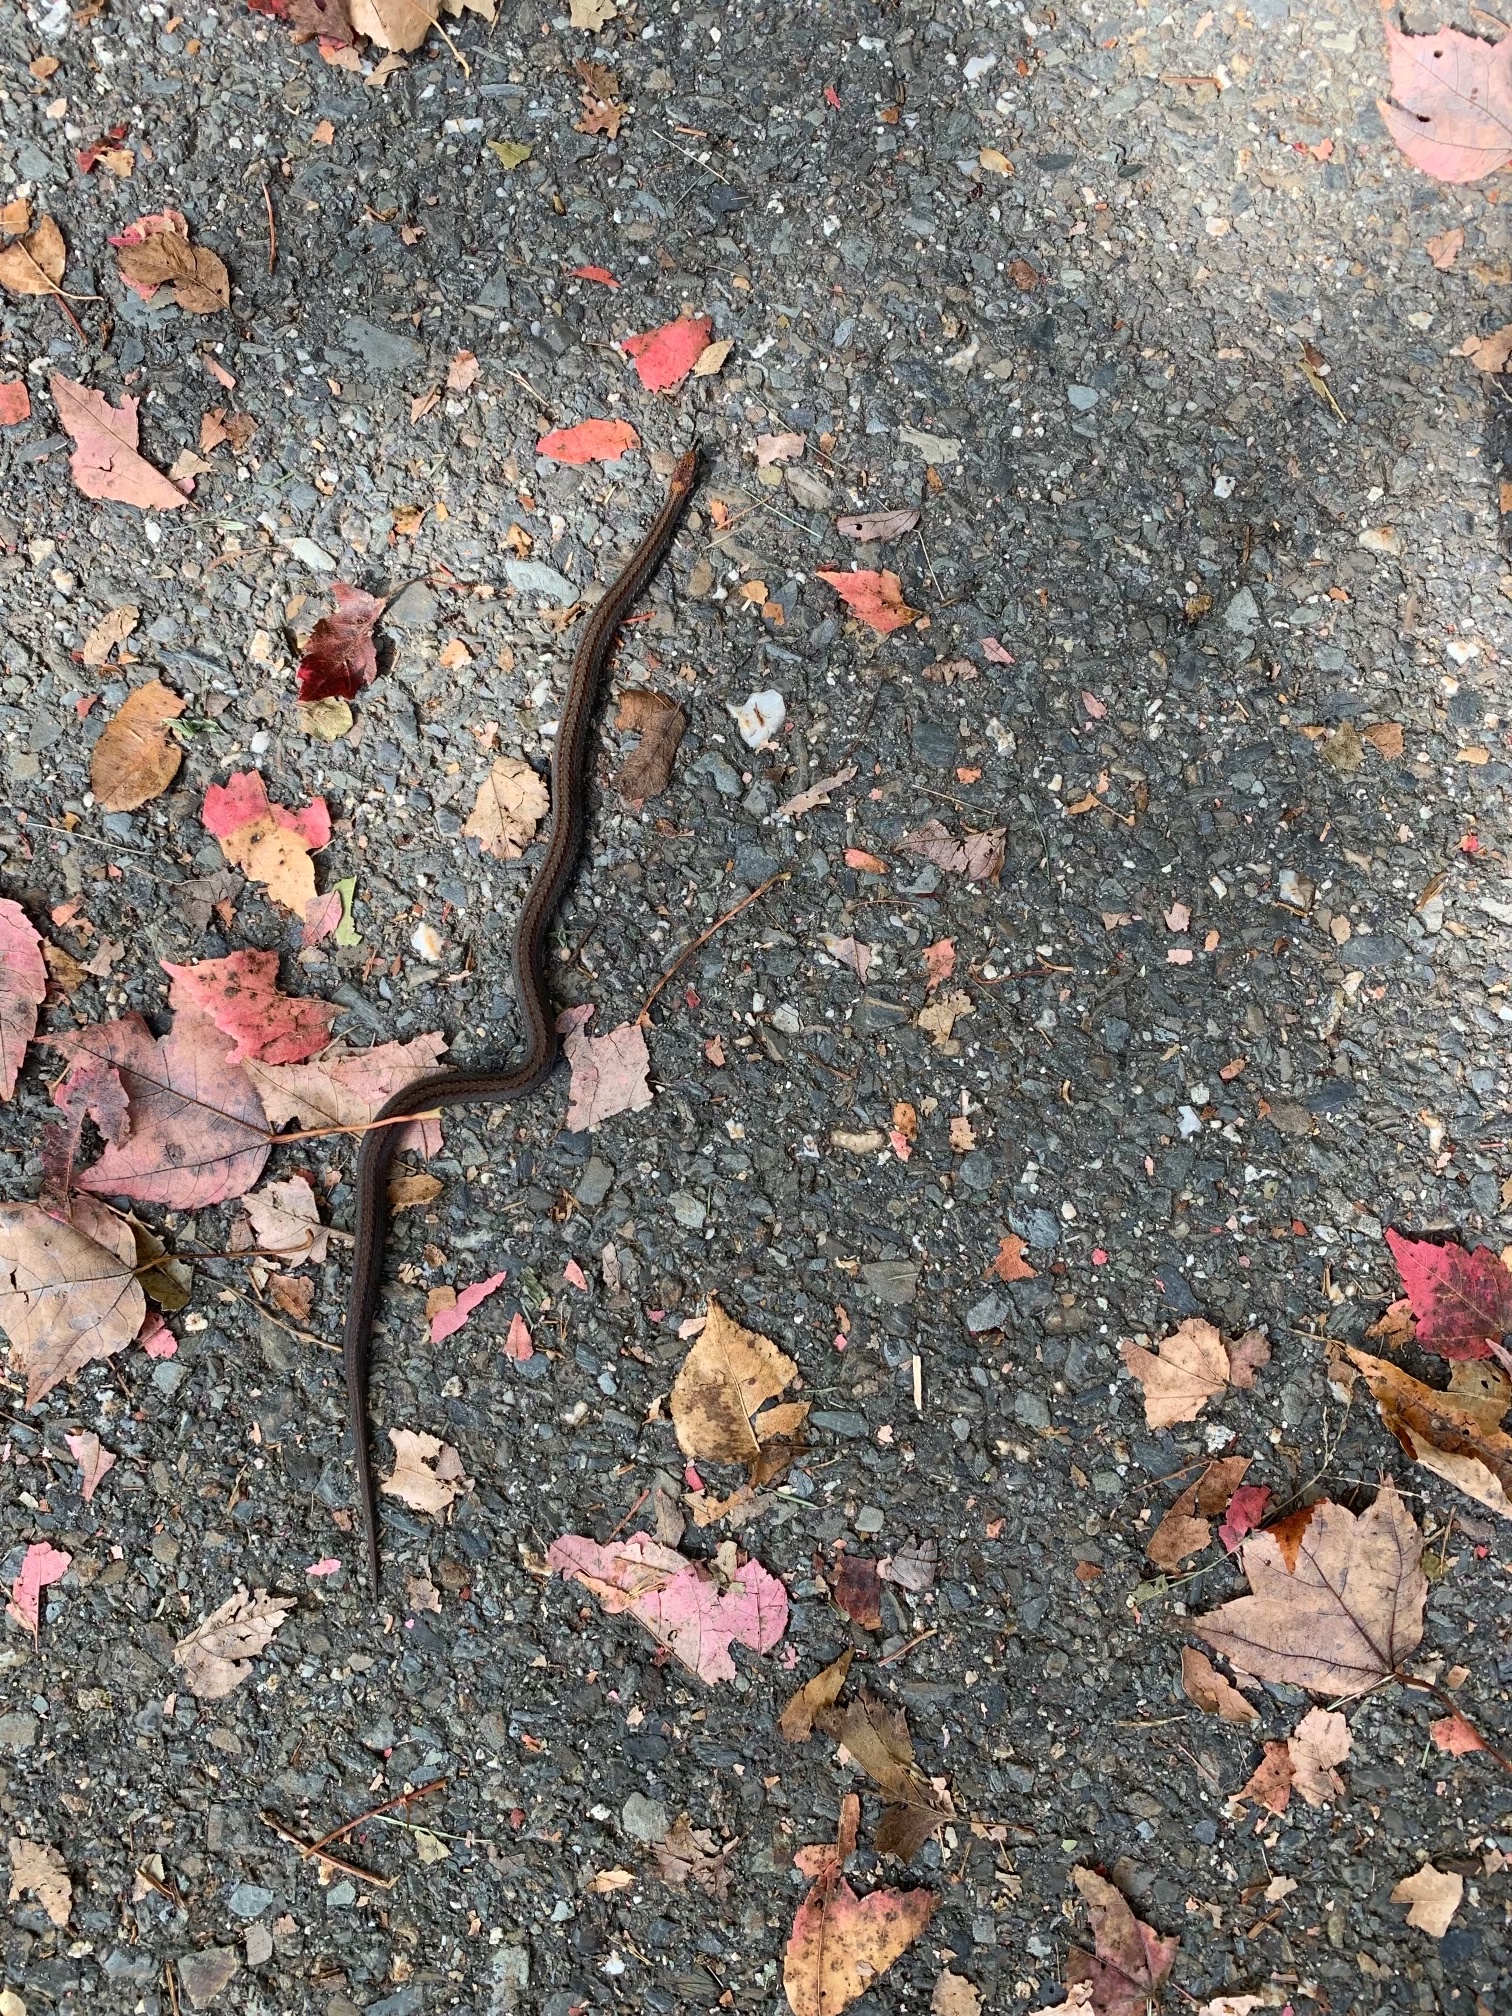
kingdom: Animalia
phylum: Chordata
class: Squamata
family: Colubridae
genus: Storeria
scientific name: Storeria occipitomaculata
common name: Redbelly snake
